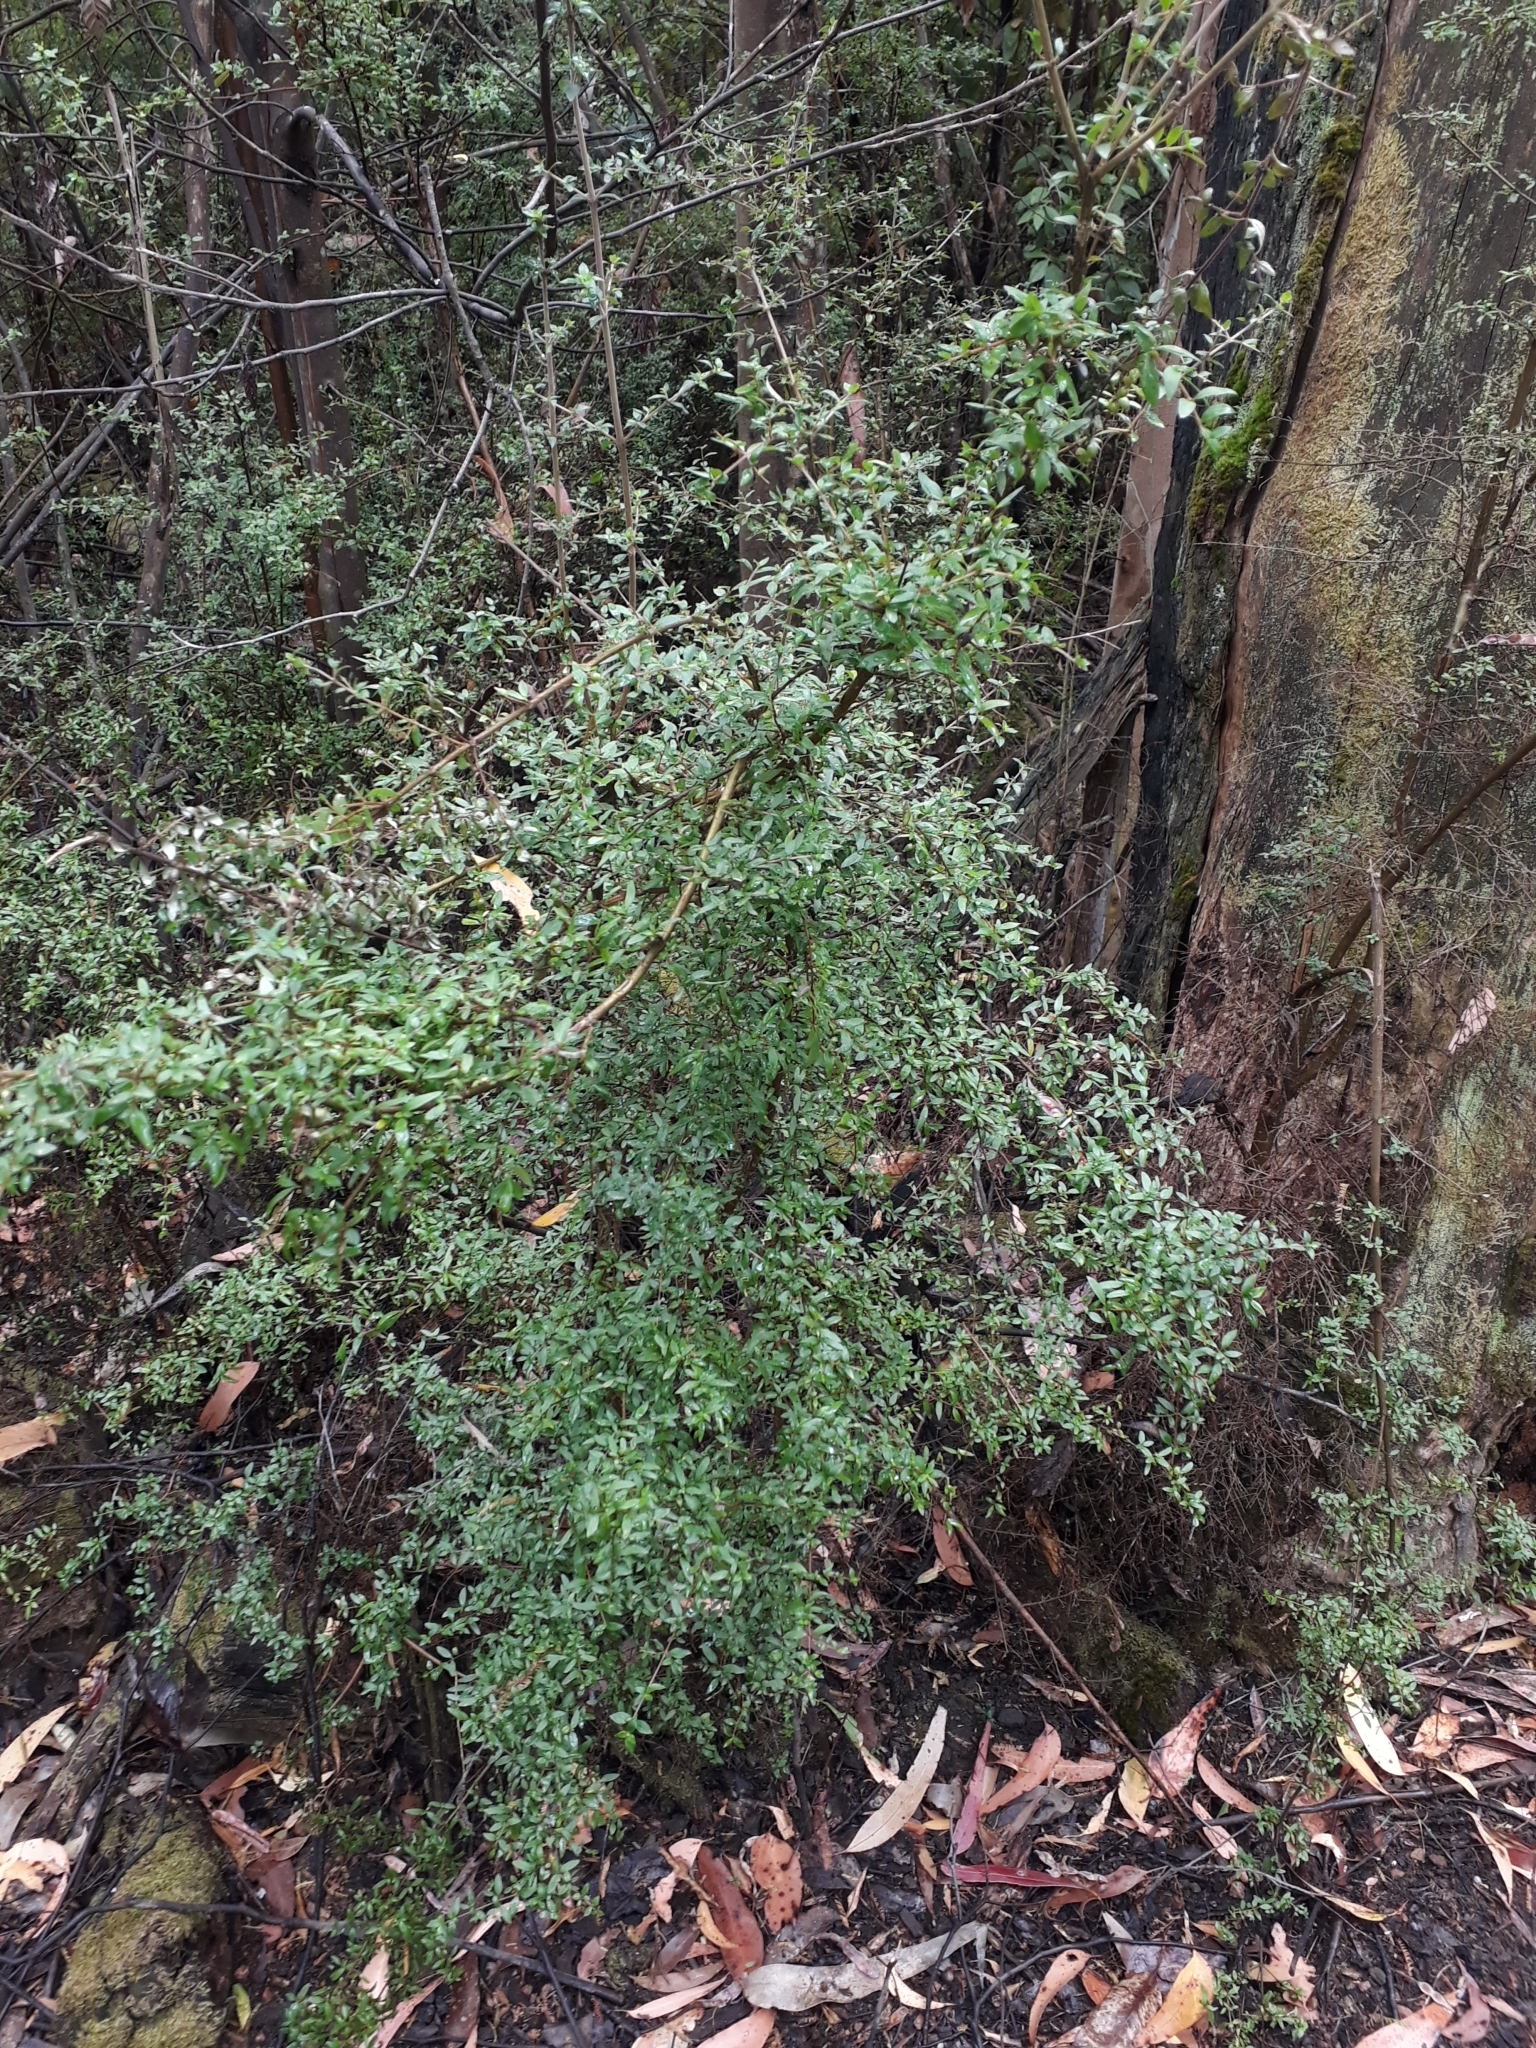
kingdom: Plantae
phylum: Tracheophyta
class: Magnoliopsida
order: Gentianales
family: Rubiaceae
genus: Coprosma
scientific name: Coprosma quadrifida
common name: Prickly currantbush
